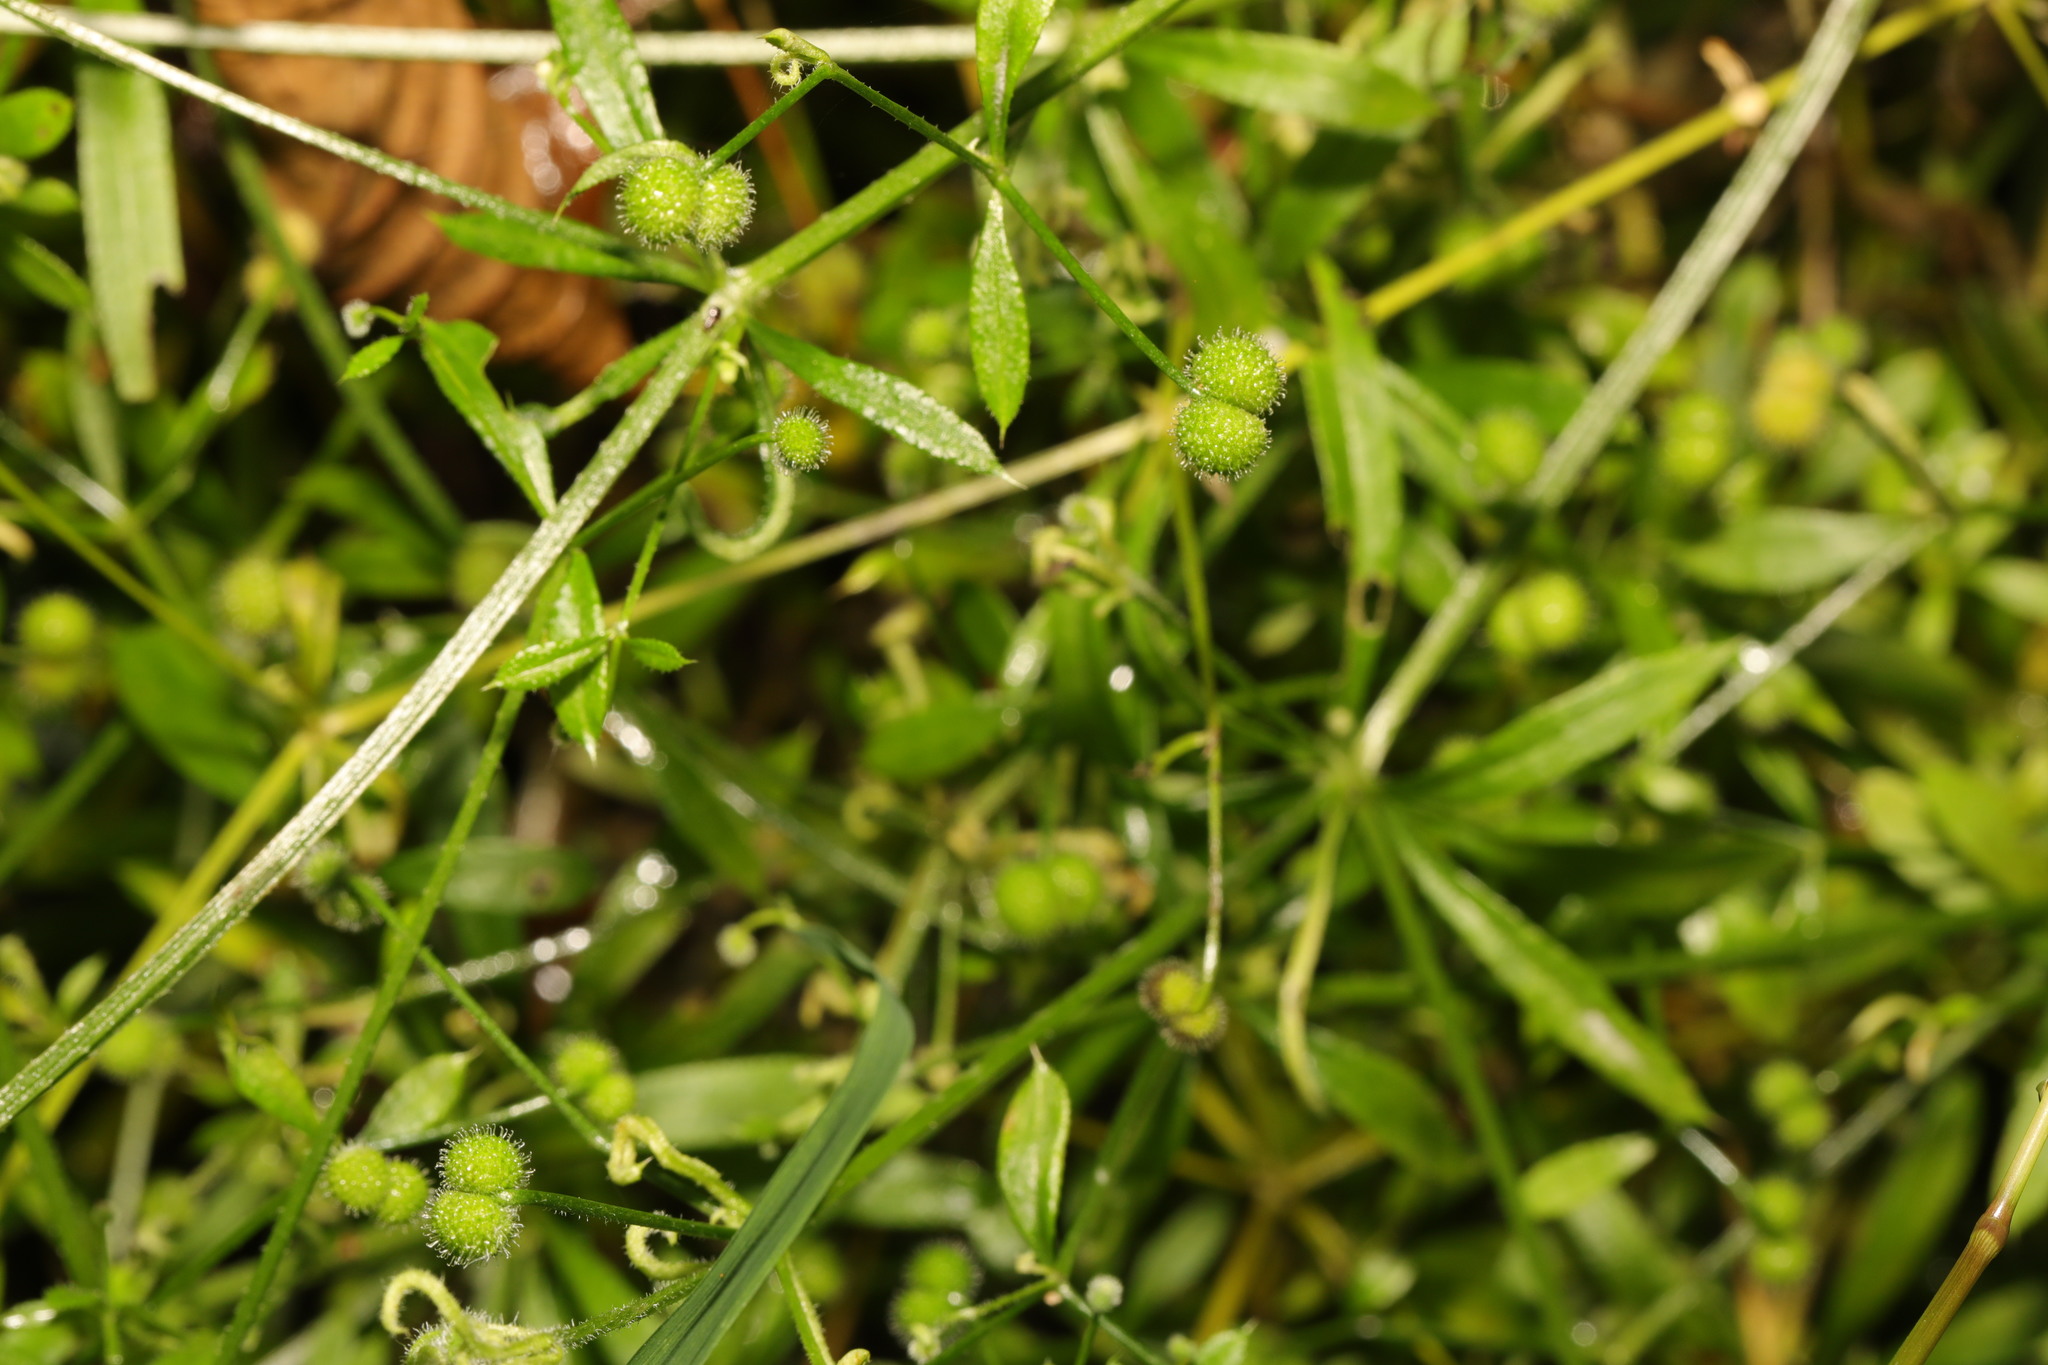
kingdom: Plantae
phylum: Tracheophyta
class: Magnoliopsida
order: Gentianales
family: Rubiaceae
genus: Galium
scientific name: Galium aparine
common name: Cleavers
